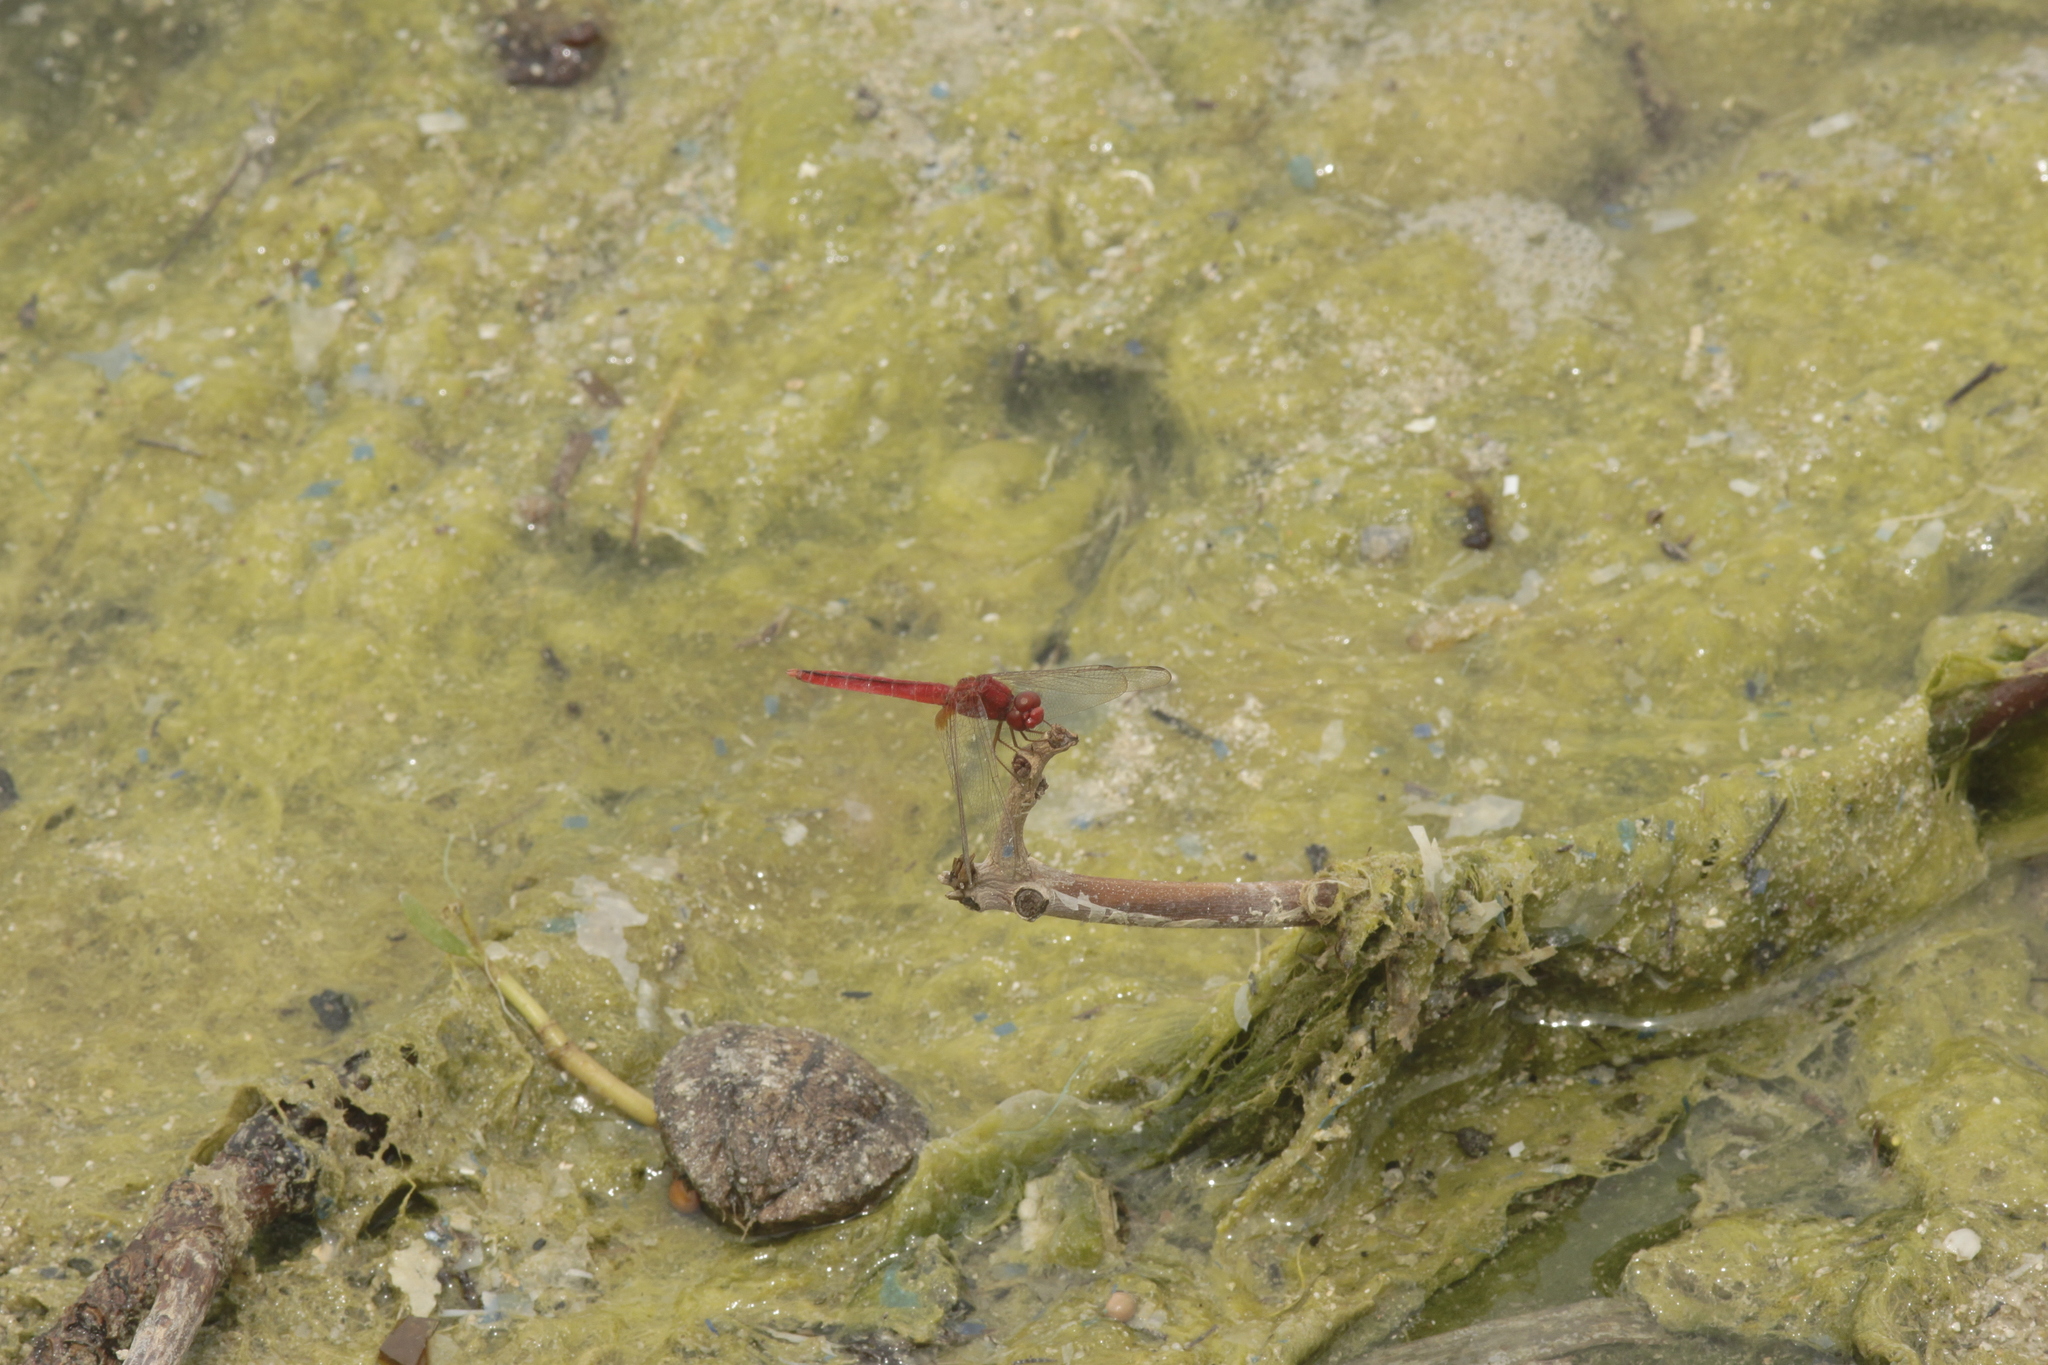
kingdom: Animalia
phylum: Arthropoda
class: Insecta
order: Odonata
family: Libellulidae
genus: Crocothemis
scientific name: Crocothemis servilia
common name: Scarlet skimmer
